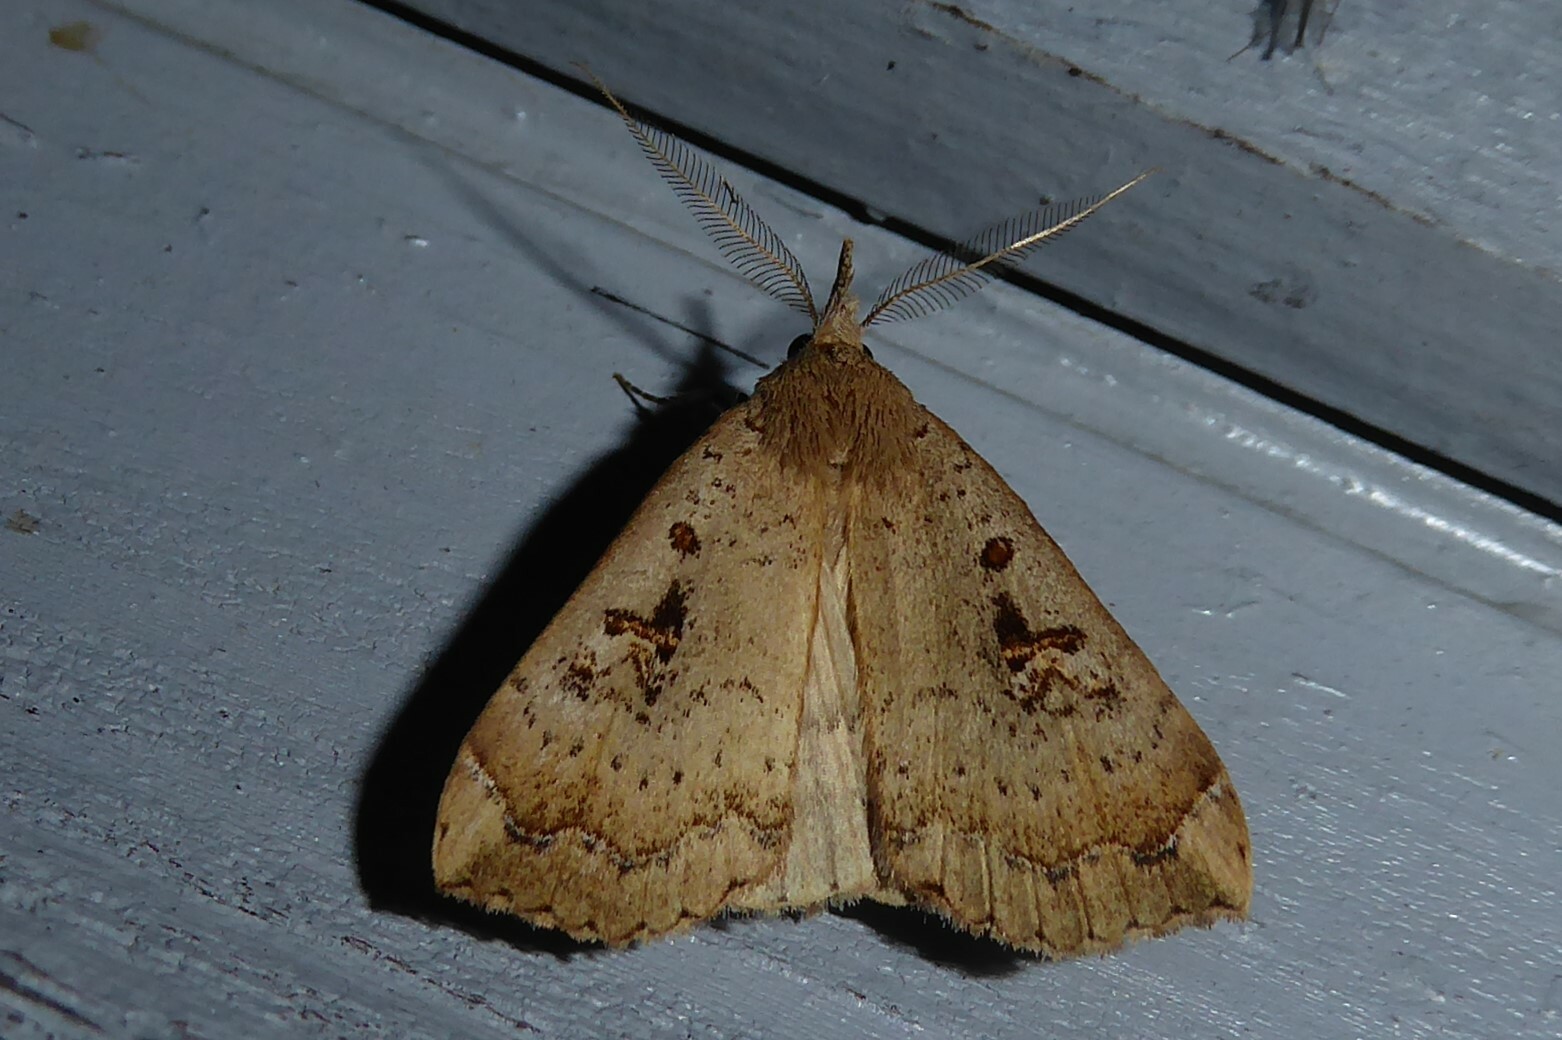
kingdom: Animalia
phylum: Arthropoda
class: Insecta
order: Lepidoptera
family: Erebidae
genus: Rhapsa
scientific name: Rhapsa scotosialis
